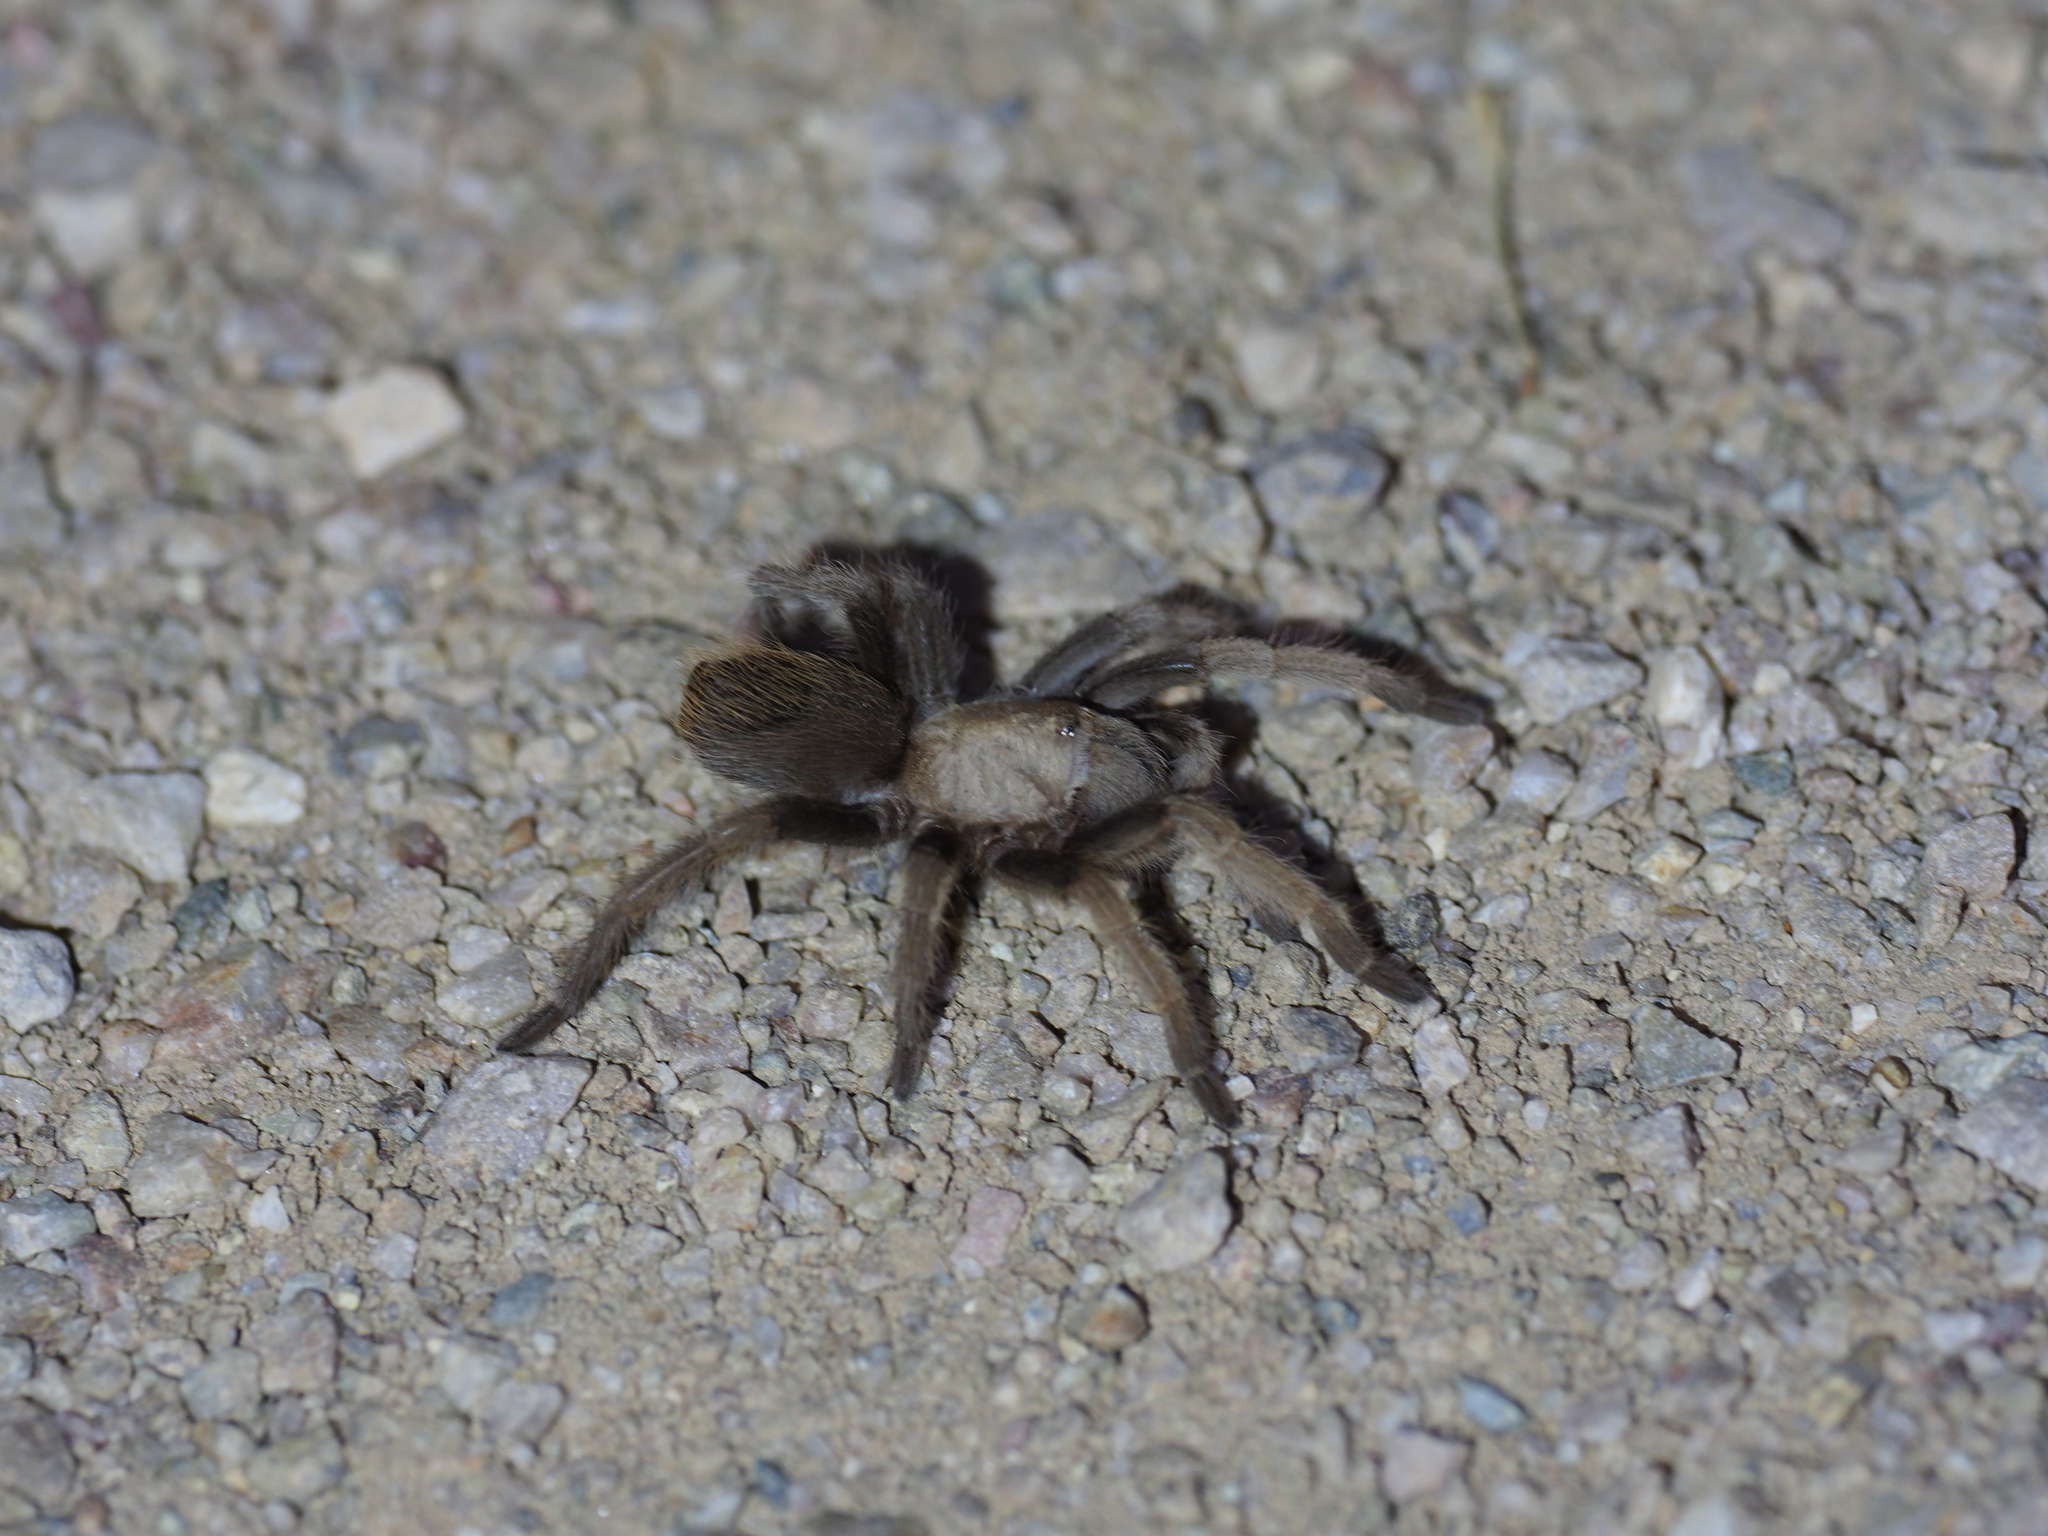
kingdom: Animalia
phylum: Arthropoda
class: Arachnida
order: Araneae
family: Theraphosidae
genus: Aphonopelma
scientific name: Aphonopelma chalcodes
